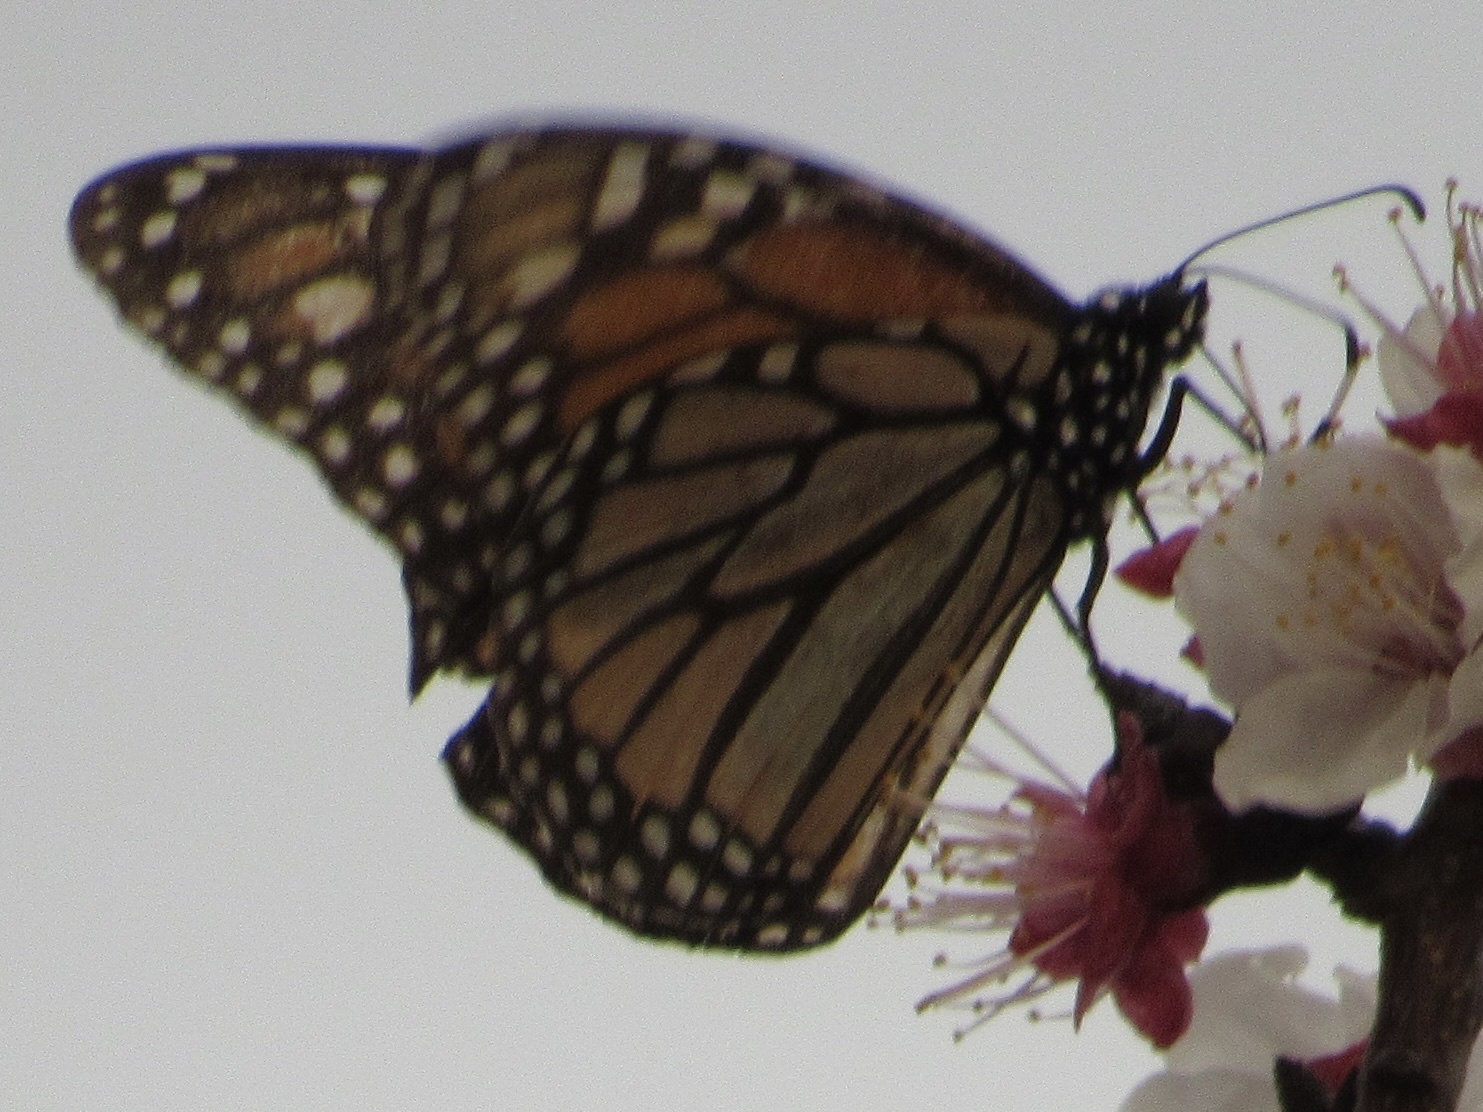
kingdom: Animalia
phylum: Arthropoda
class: Insecta
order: Lepidoptera
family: Nymphalidae
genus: Danaus
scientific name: Danaus plexippus
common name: Monarch
